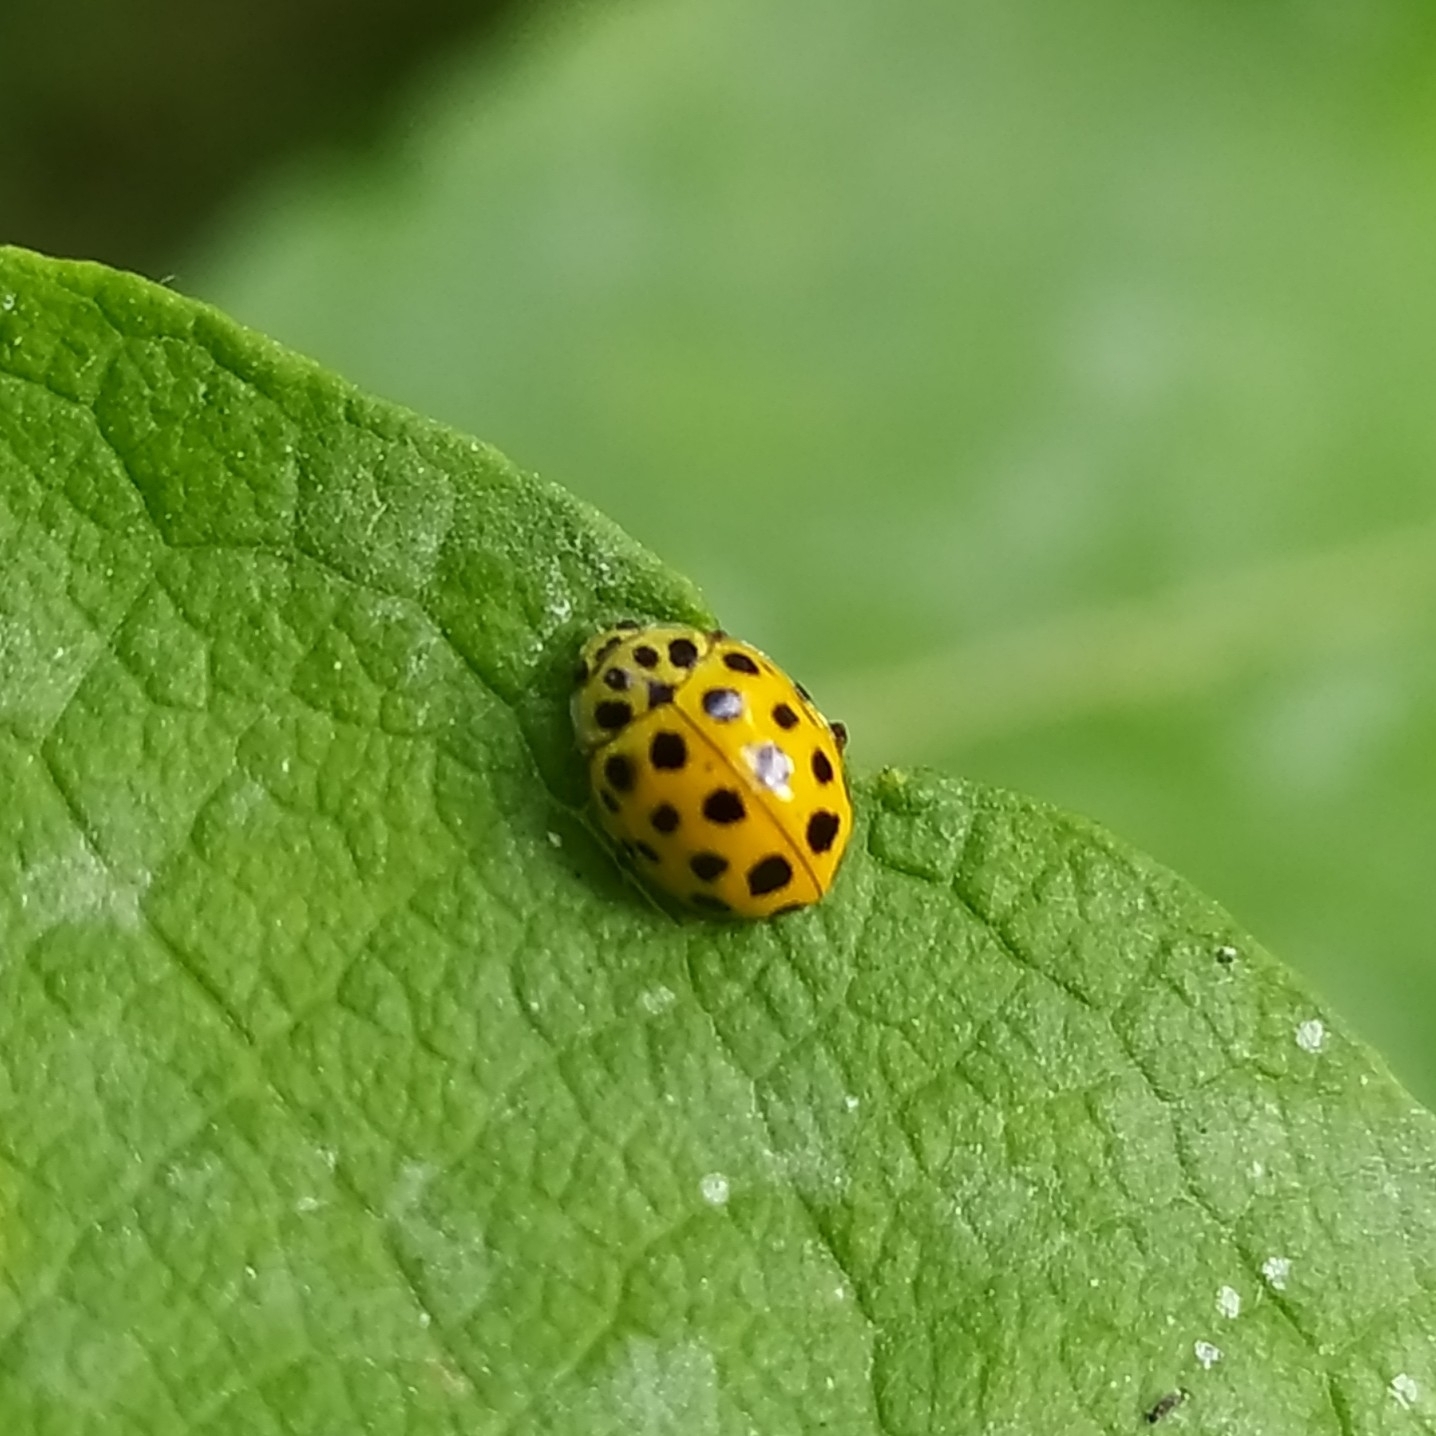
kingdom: Animalia
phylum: Arthropoda
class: Insecta
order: Coleoptera
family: Coccinellidae
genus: Psyllobora
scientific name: Psyllobora vigintiduopunctata
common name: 22-spot ladybird
